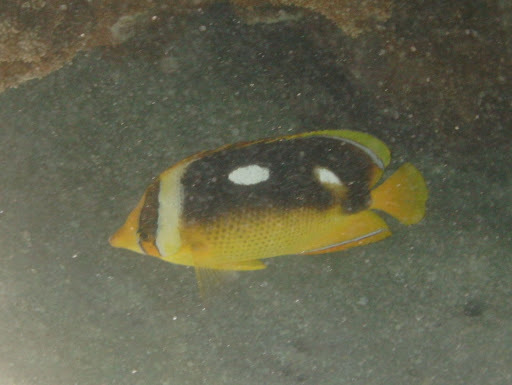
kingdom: Animalia
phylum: Chordata
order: Perciformes
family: Chaetodontidae
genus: Chaetodon
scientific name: Chaetodon quadrimaculatus
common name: Fourspot butterflyfish
